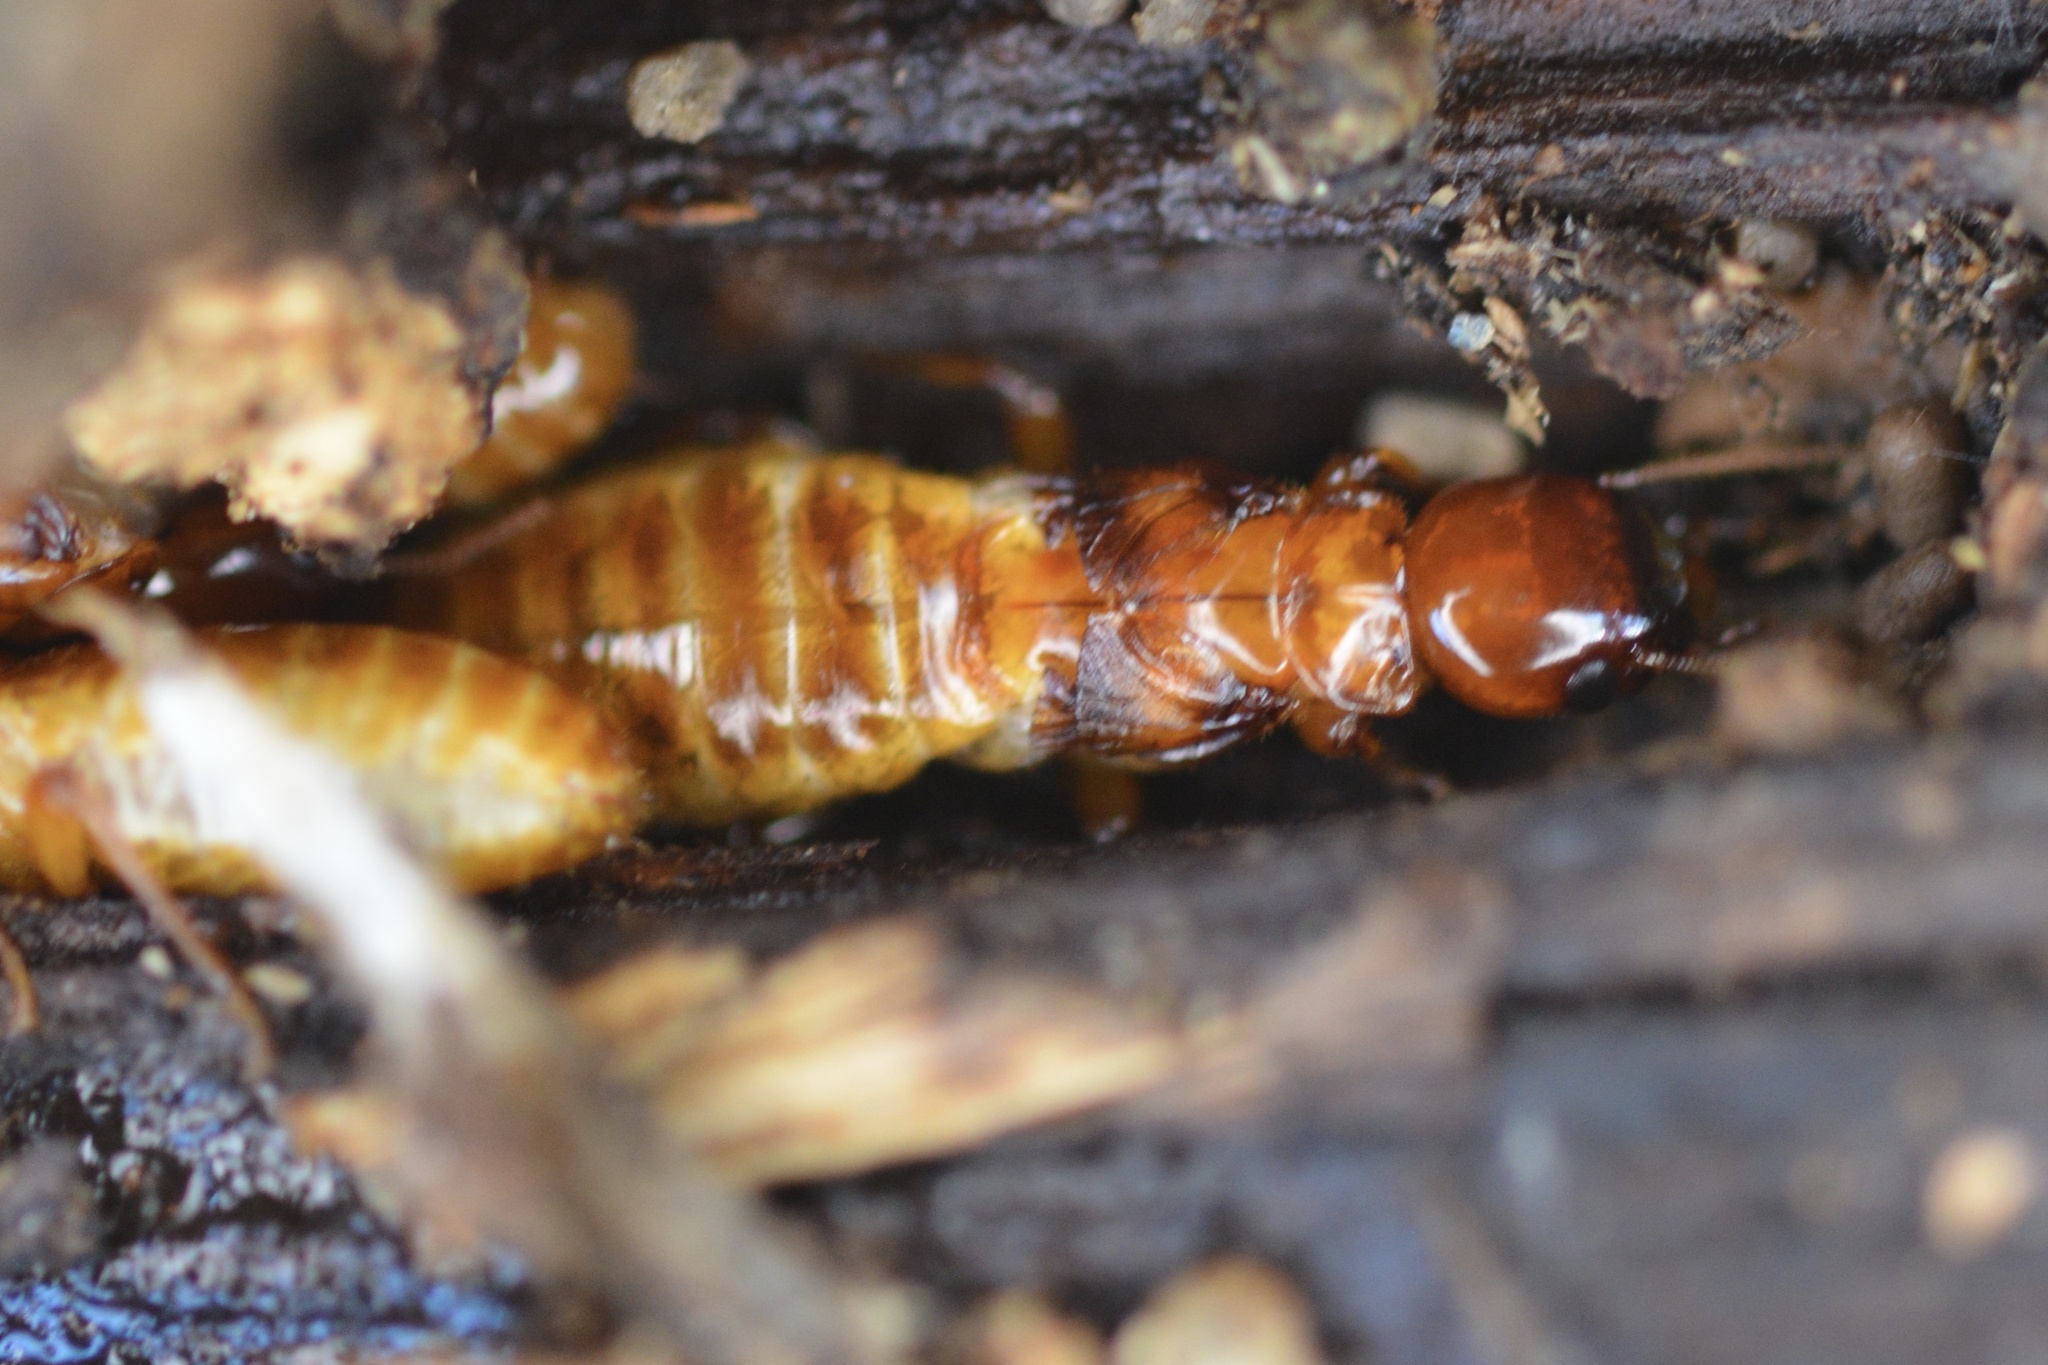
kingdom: Animalia
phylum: Arthropoda
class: Insecta
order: Blattodea
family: Archotermopsidae
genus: Zootermopsis
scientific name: Zootermopsis angusticollis
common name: Rottenwood termite
